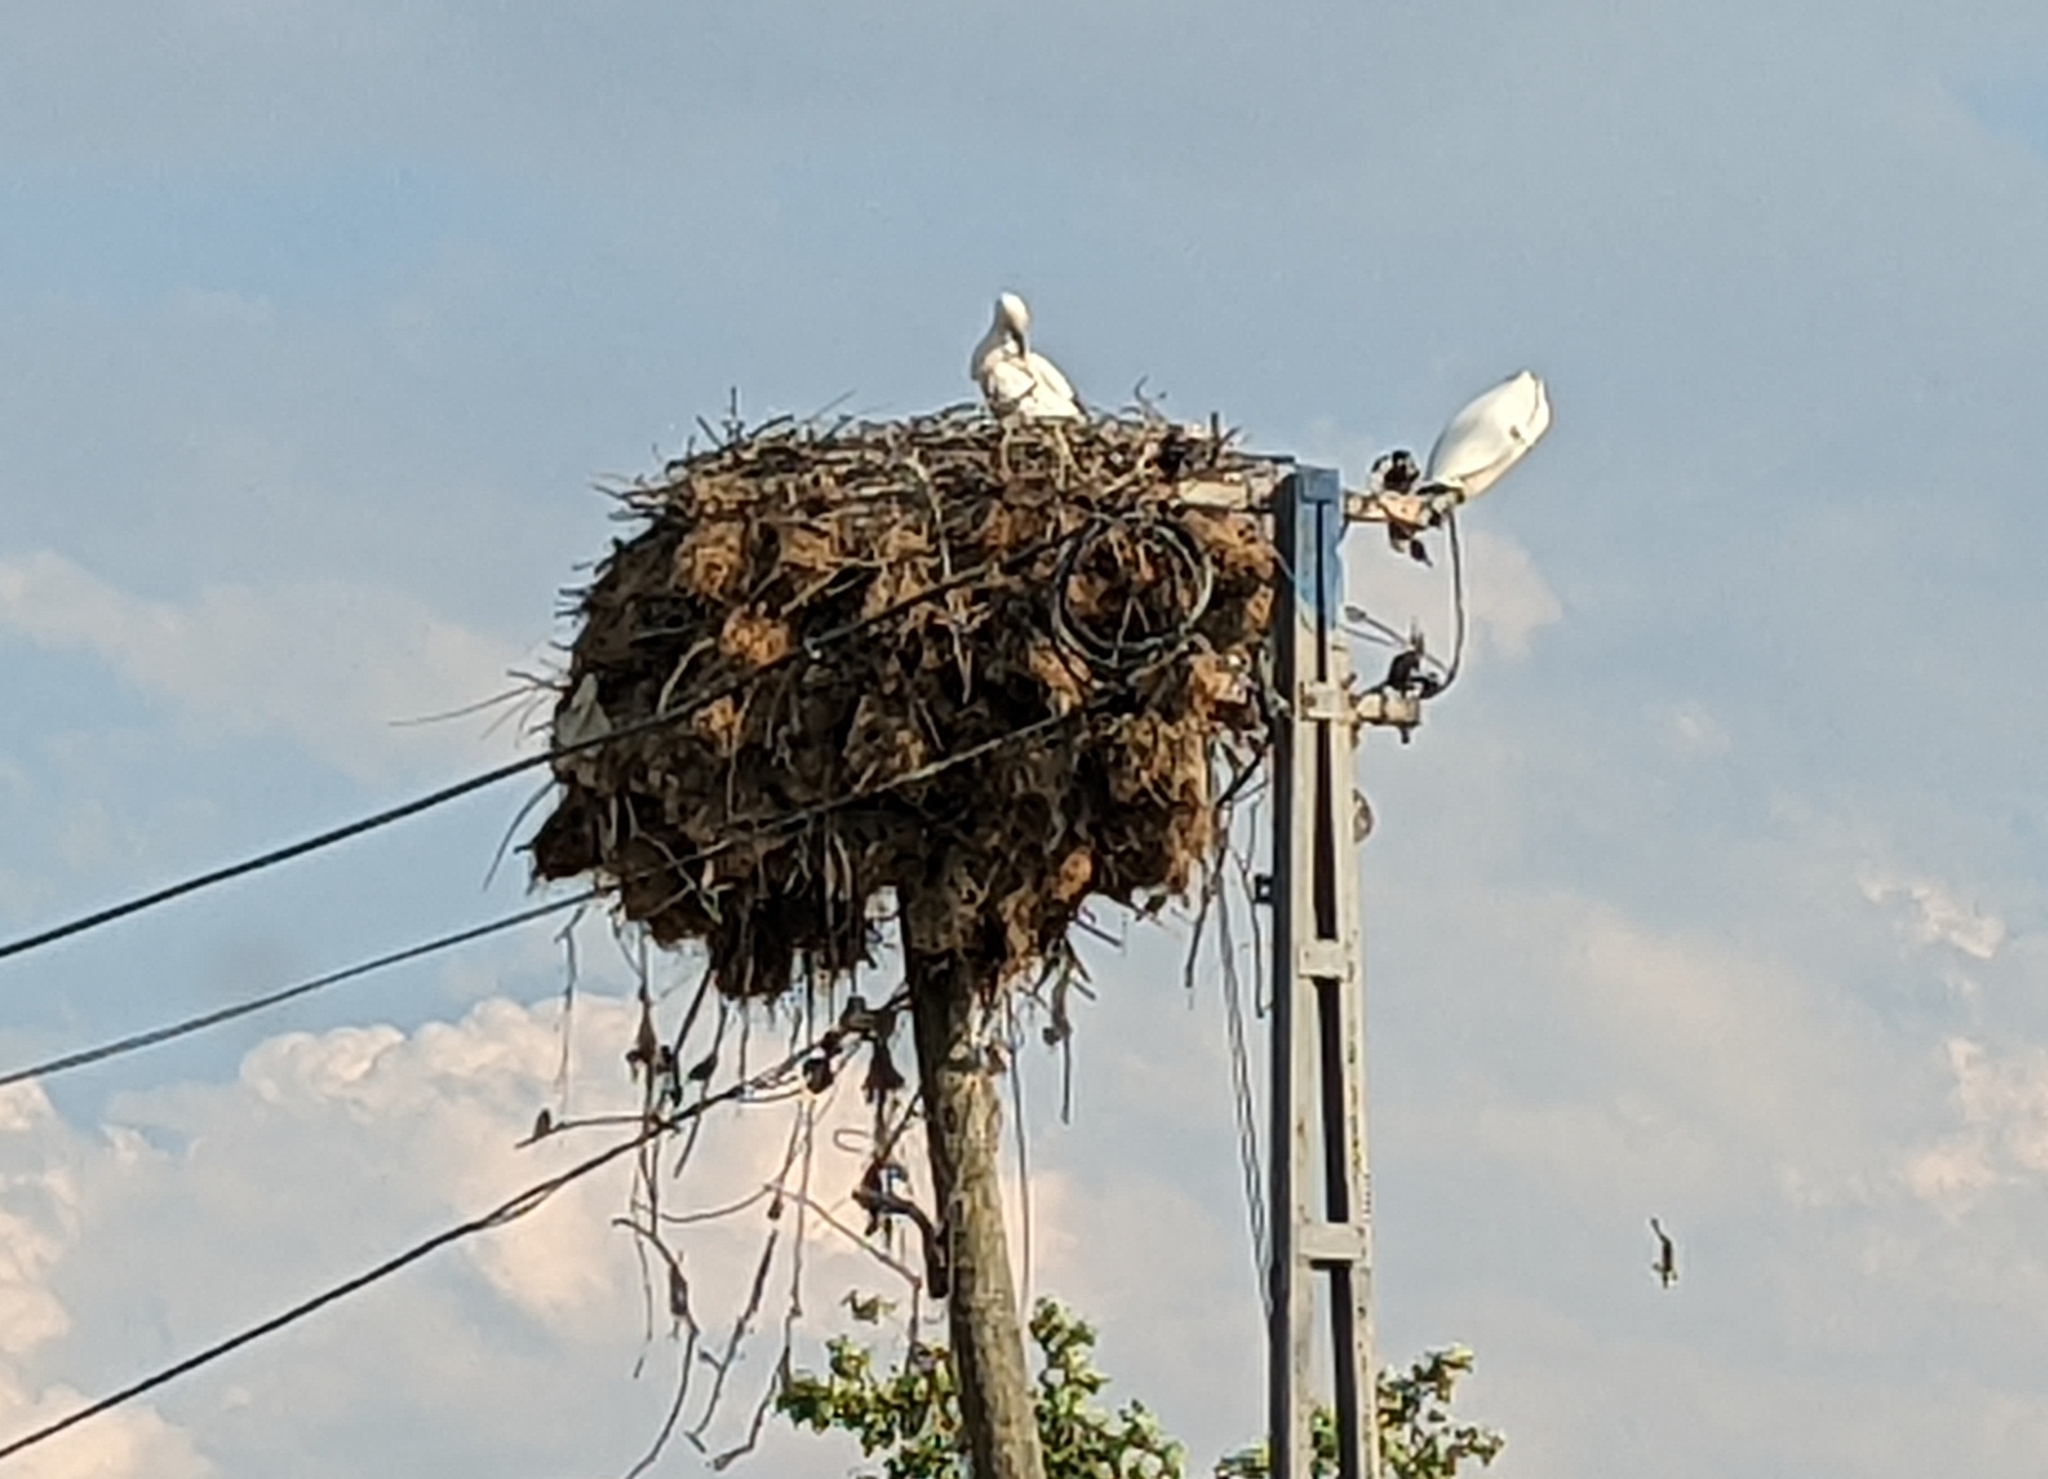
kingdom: Animalia
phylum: Chordata
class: Aves
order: Ciconiiformes
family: Ciconiidae
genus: Ciconia
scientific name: Ciconia ciconia
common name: White stork
